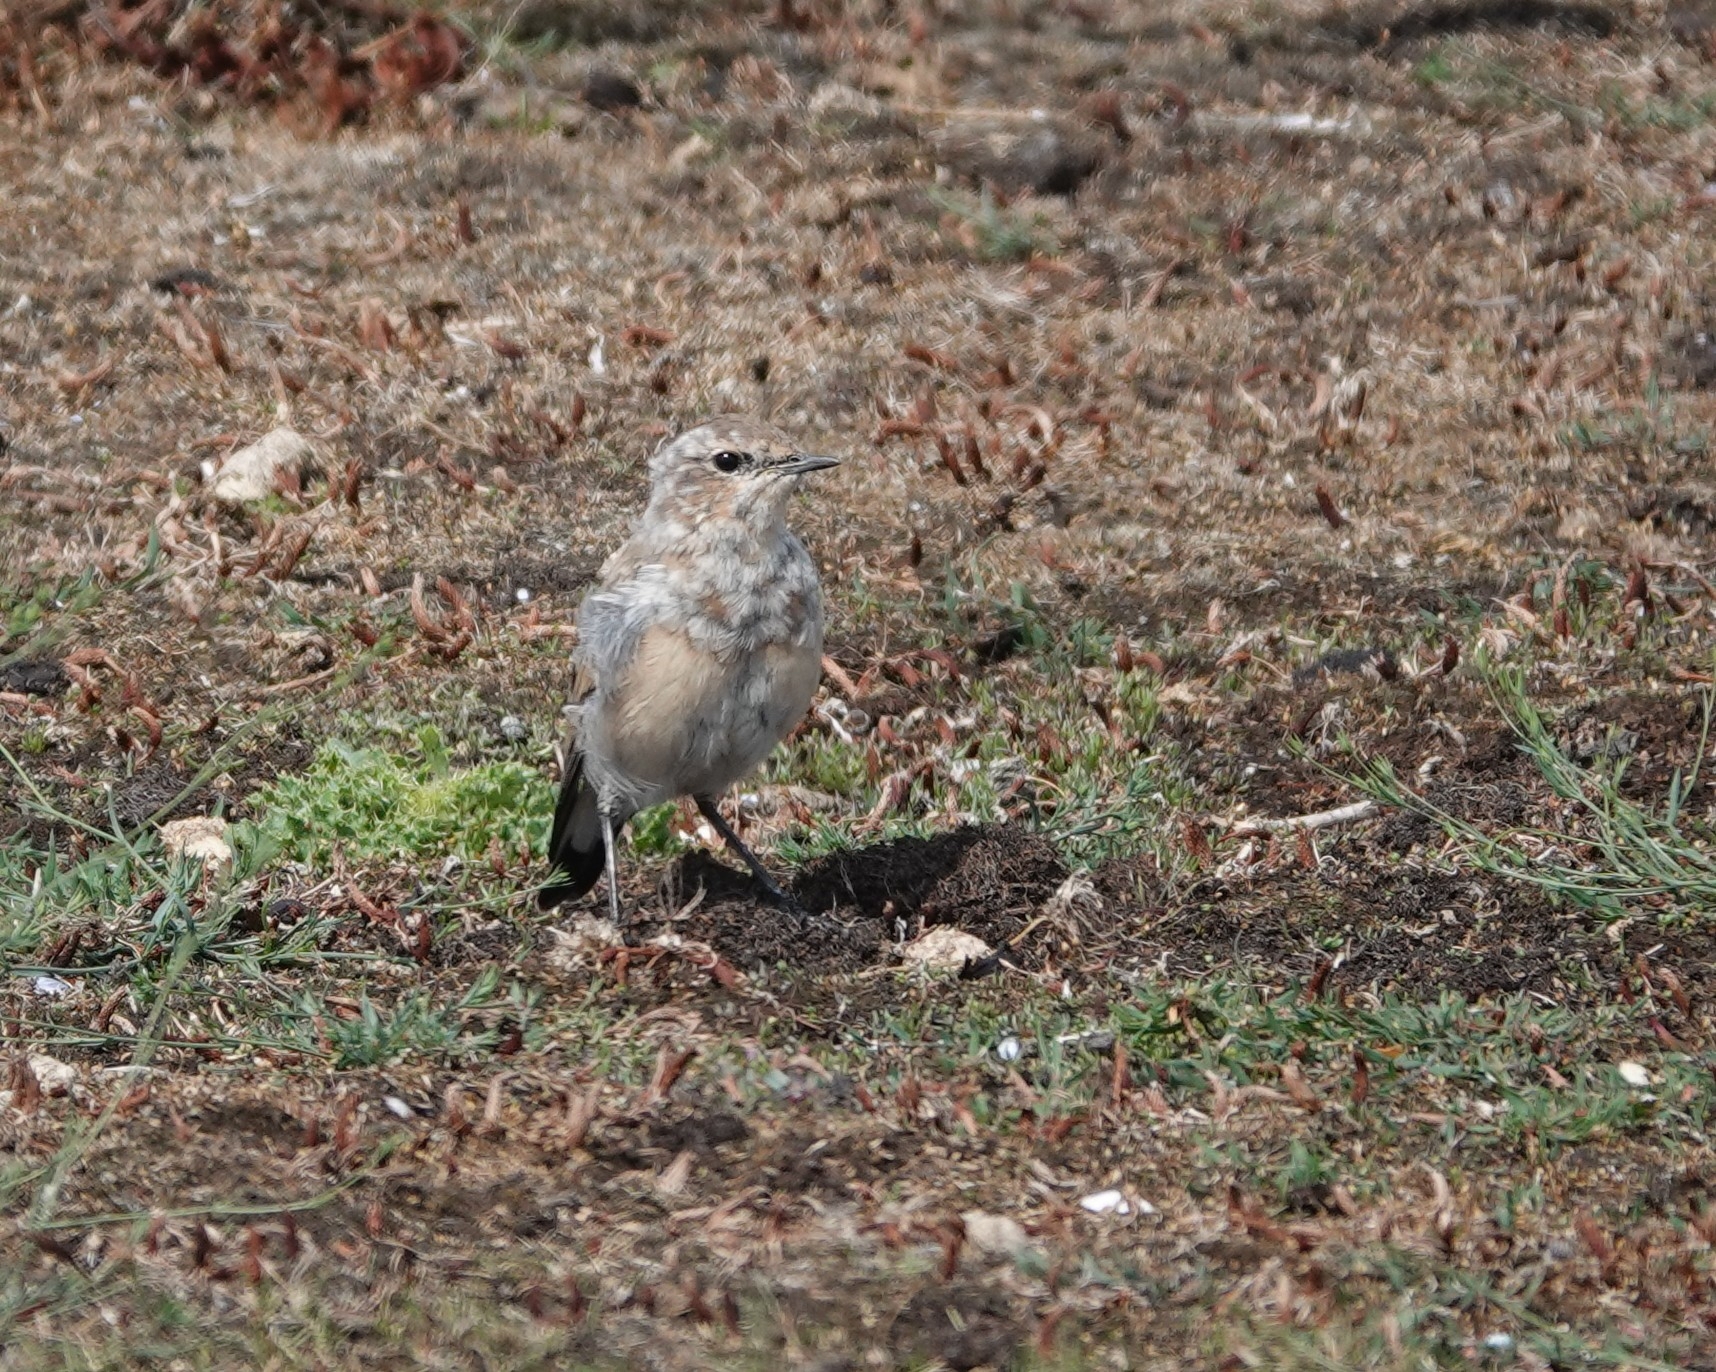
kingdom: Animalia
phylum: Chordata
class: Aves
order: Passeriformes
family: Muscicapidae
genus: Oenanthe
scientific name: Oenanthe oenanthe
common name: Northern wheatear
